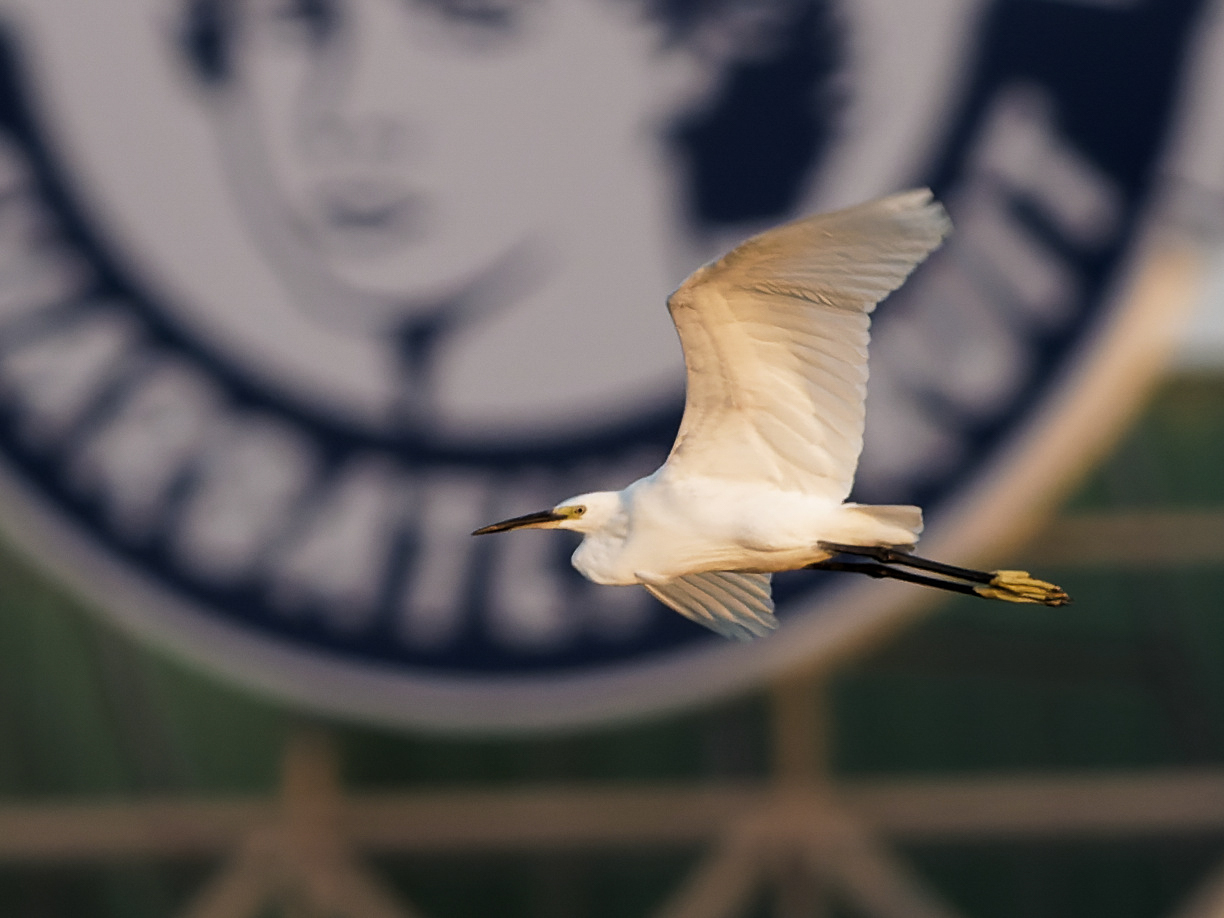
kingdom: Animalia
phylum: Chordata
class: Aves
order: Pelecaniformes
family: Ardeidae
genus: Egretta
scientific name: Egretta garzetta
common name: Little egret
